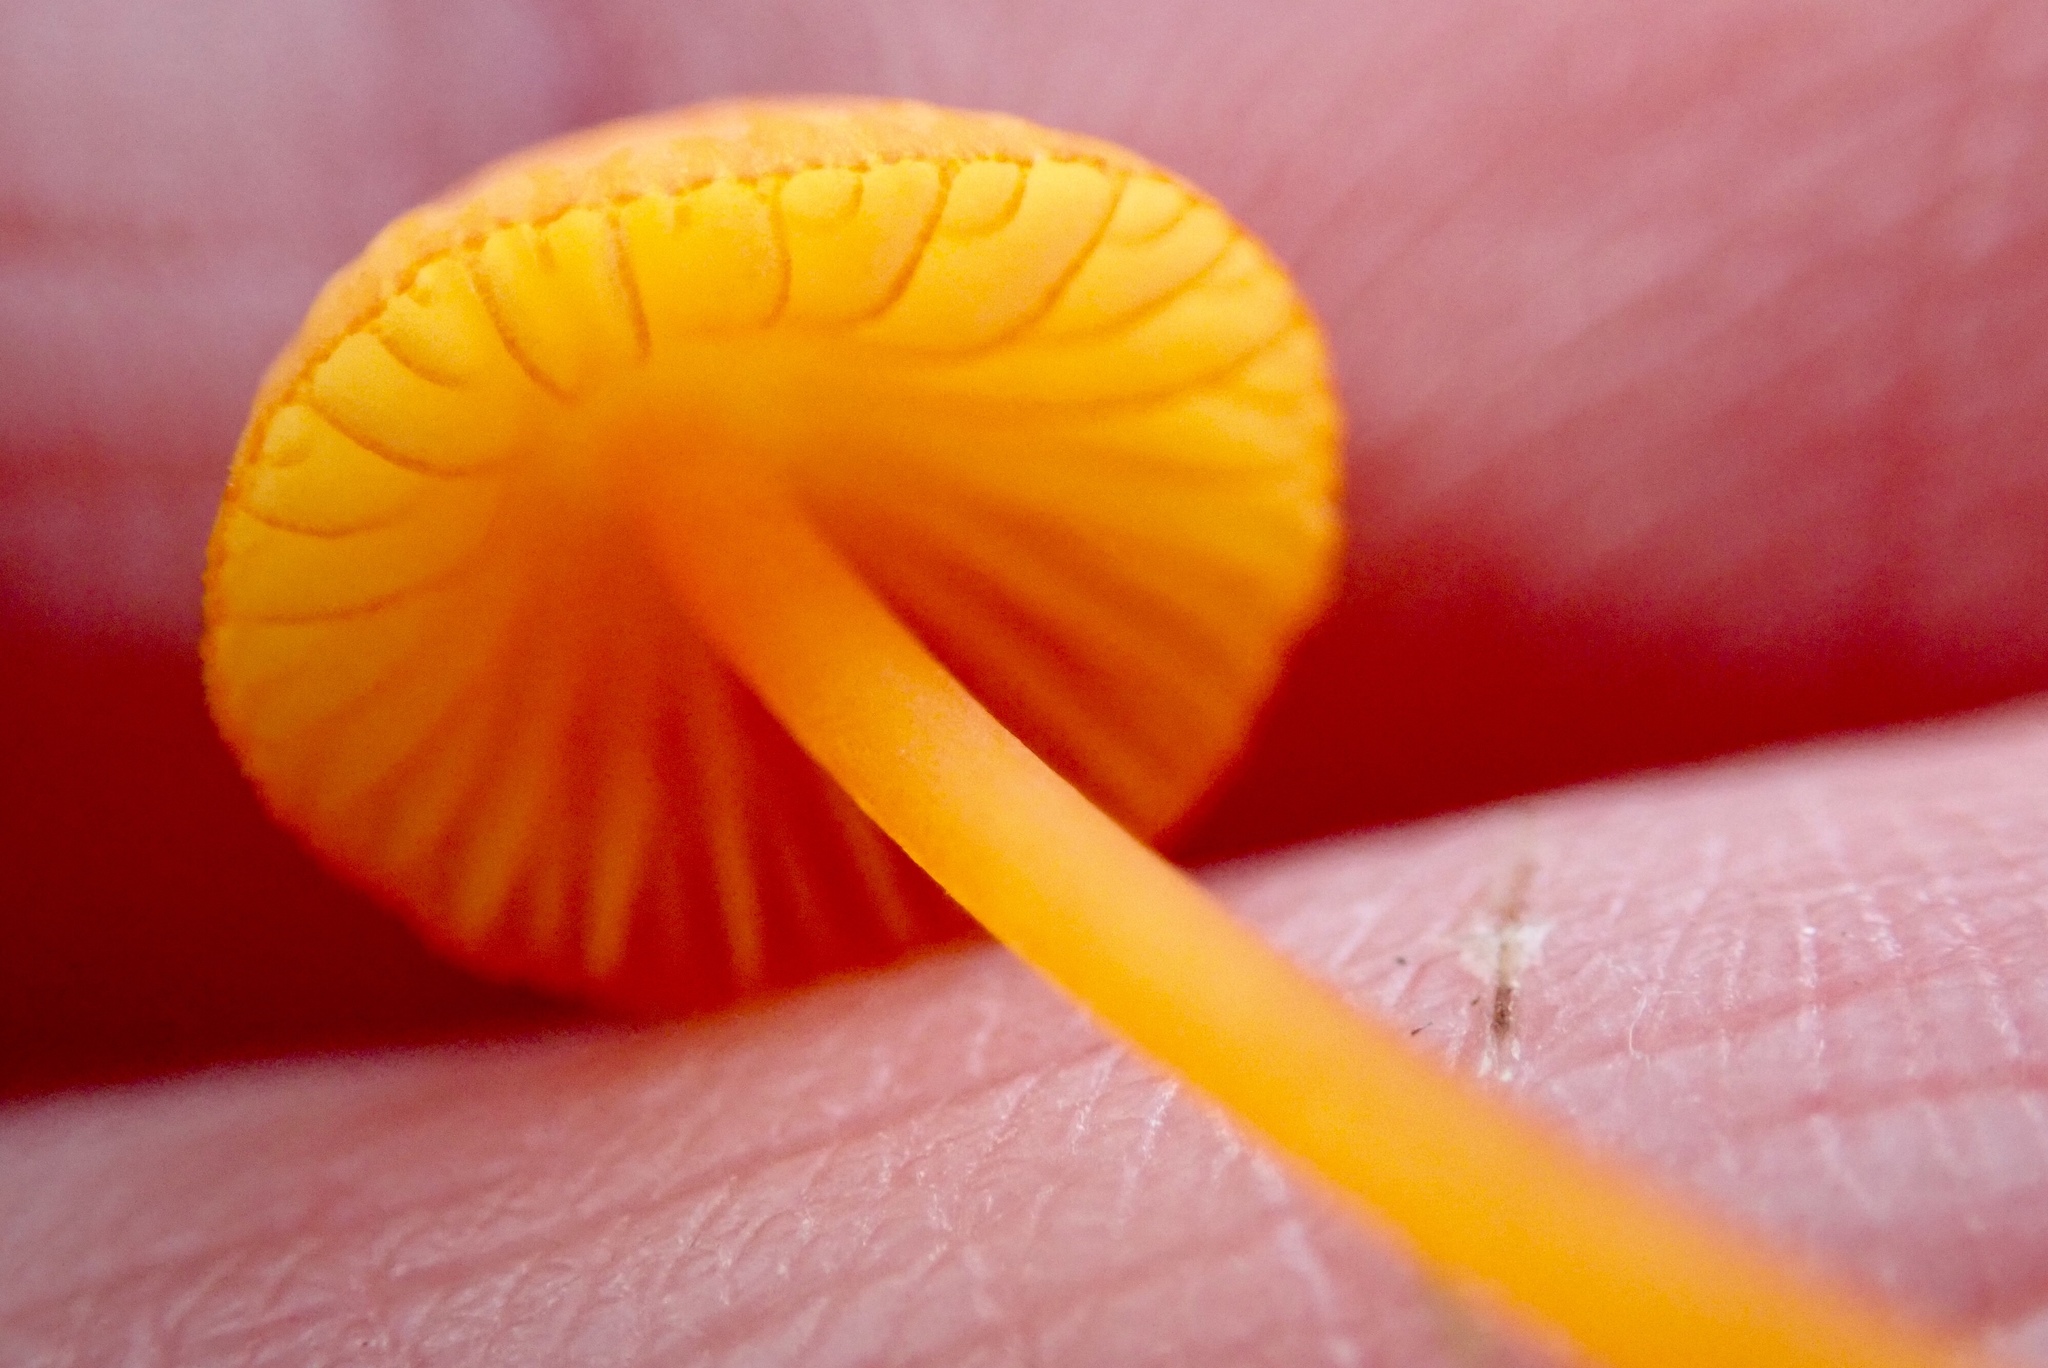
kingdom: Fungi
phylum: Basidiomycota
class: Agaricomycetes
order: Agaricales
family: Mycenaceae
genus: Mycena
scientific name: Mycena strobilinoidea
